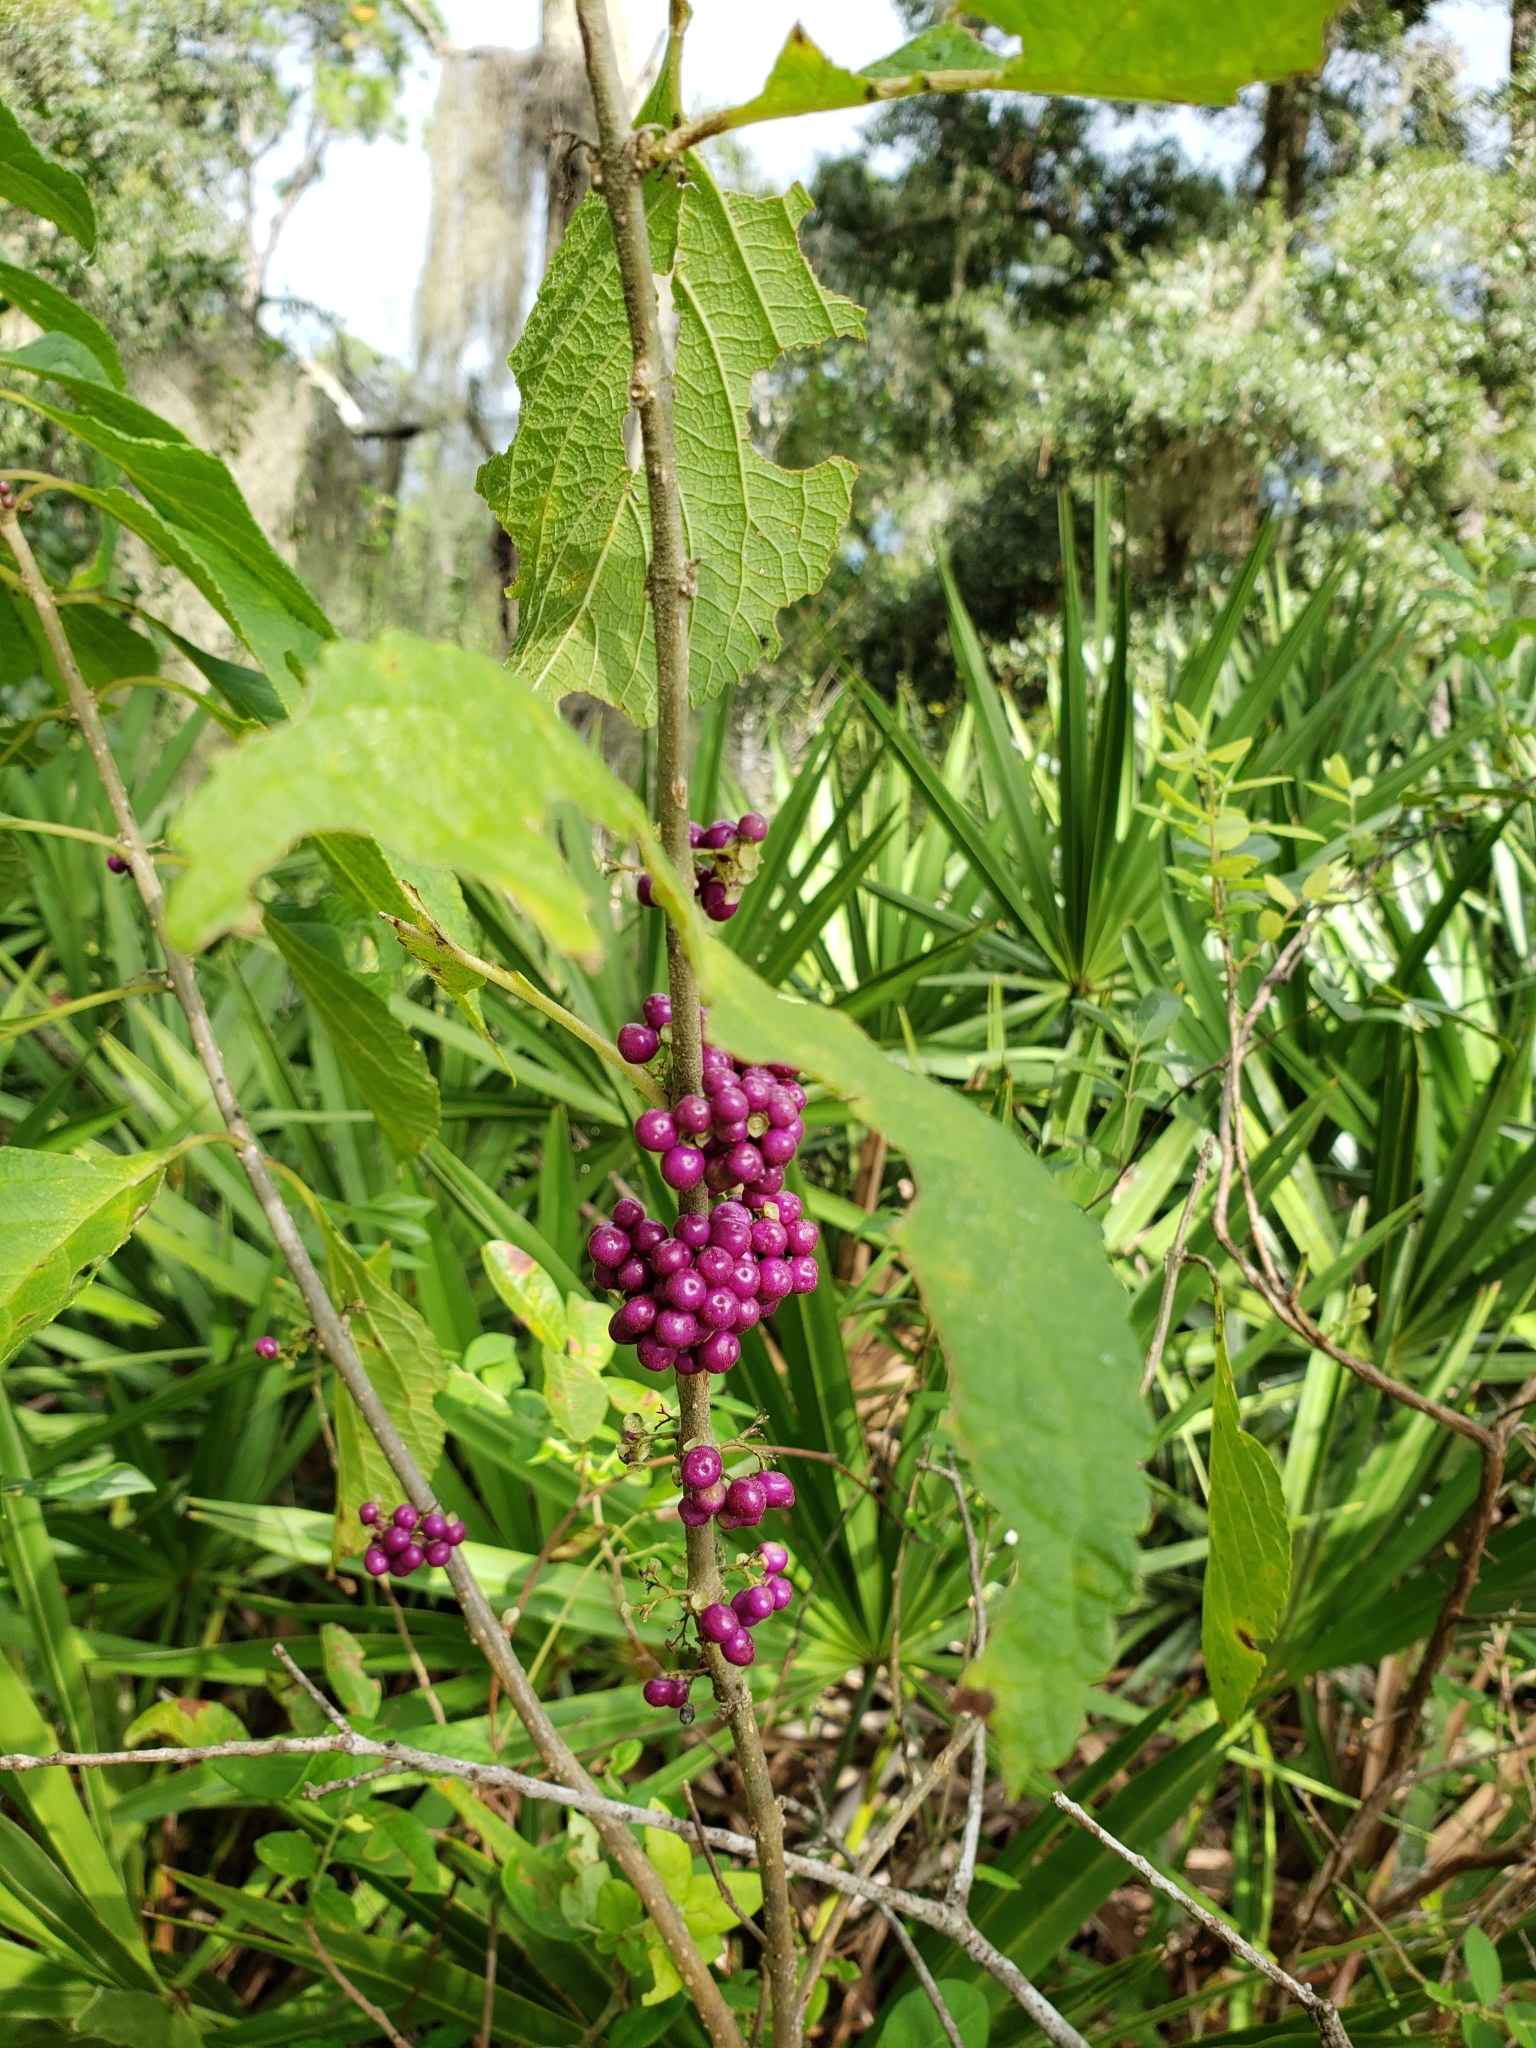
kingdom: Plantae
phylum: Tracheophyta
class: Magnoliopsida
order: Lamiales
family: Lamiaceae
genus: Callicarpa
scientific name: Callicarpa americana
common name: American beautyberry
